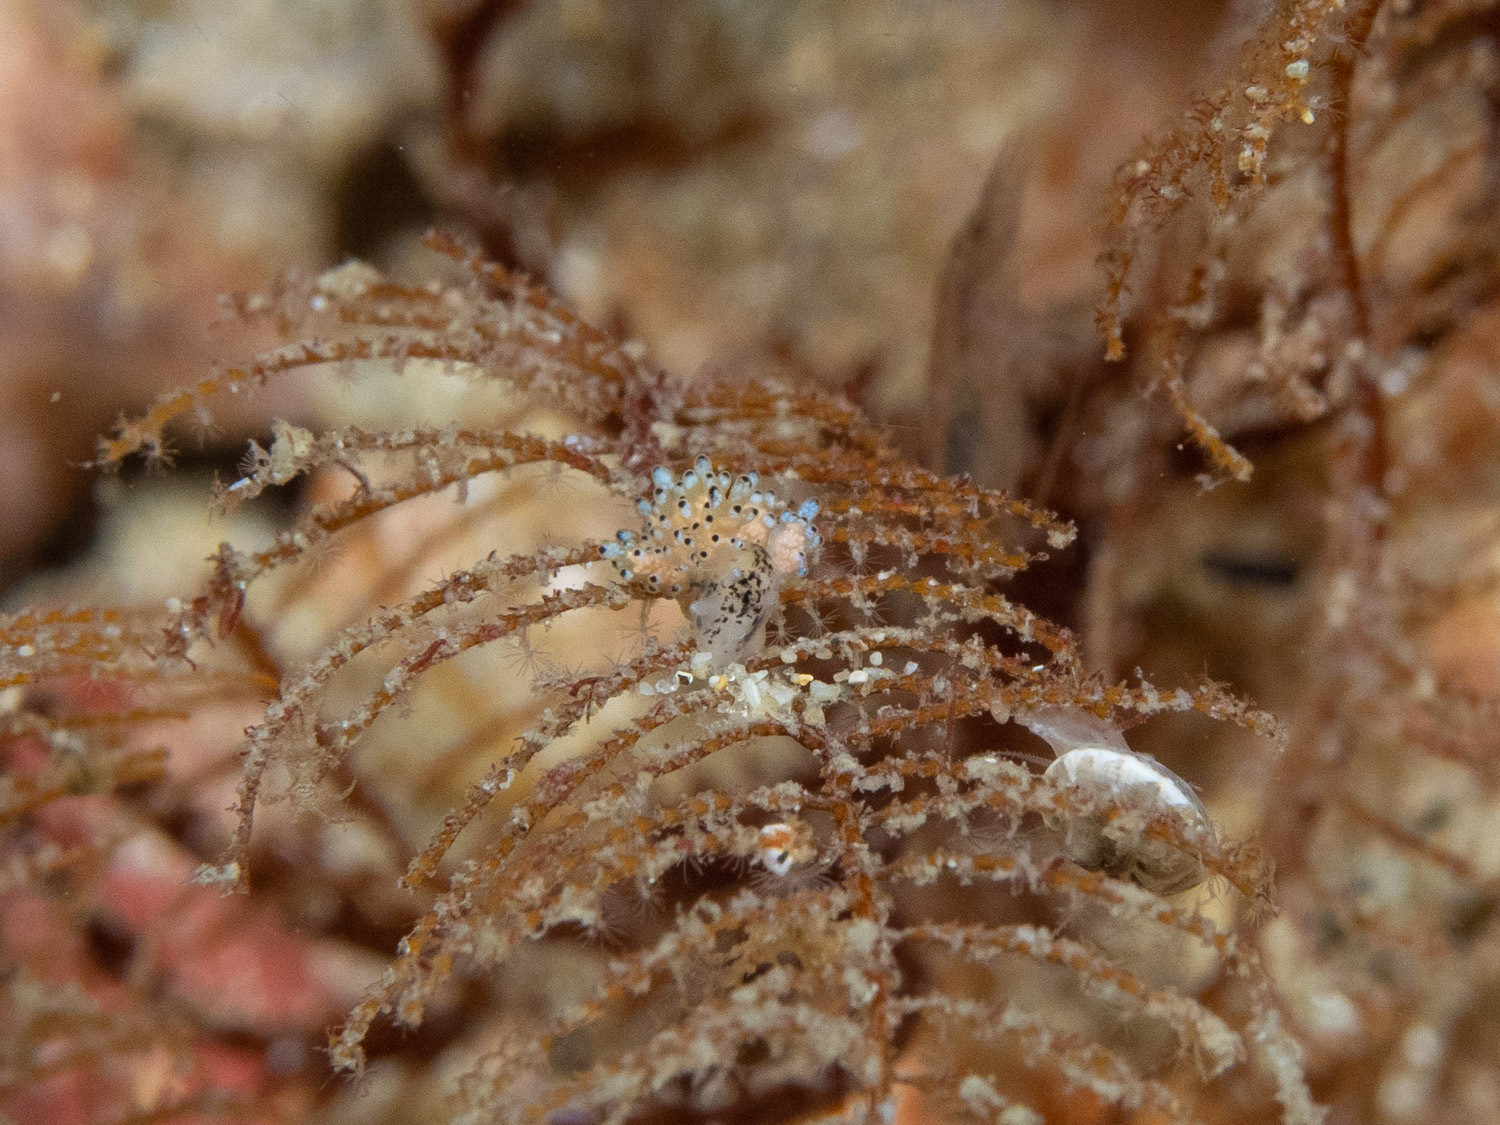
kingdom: Animalia
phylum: Mollusca
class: Gastropoda
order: Nudibranchia
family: Dotidae
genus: Doto
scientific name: Doto ostenta
